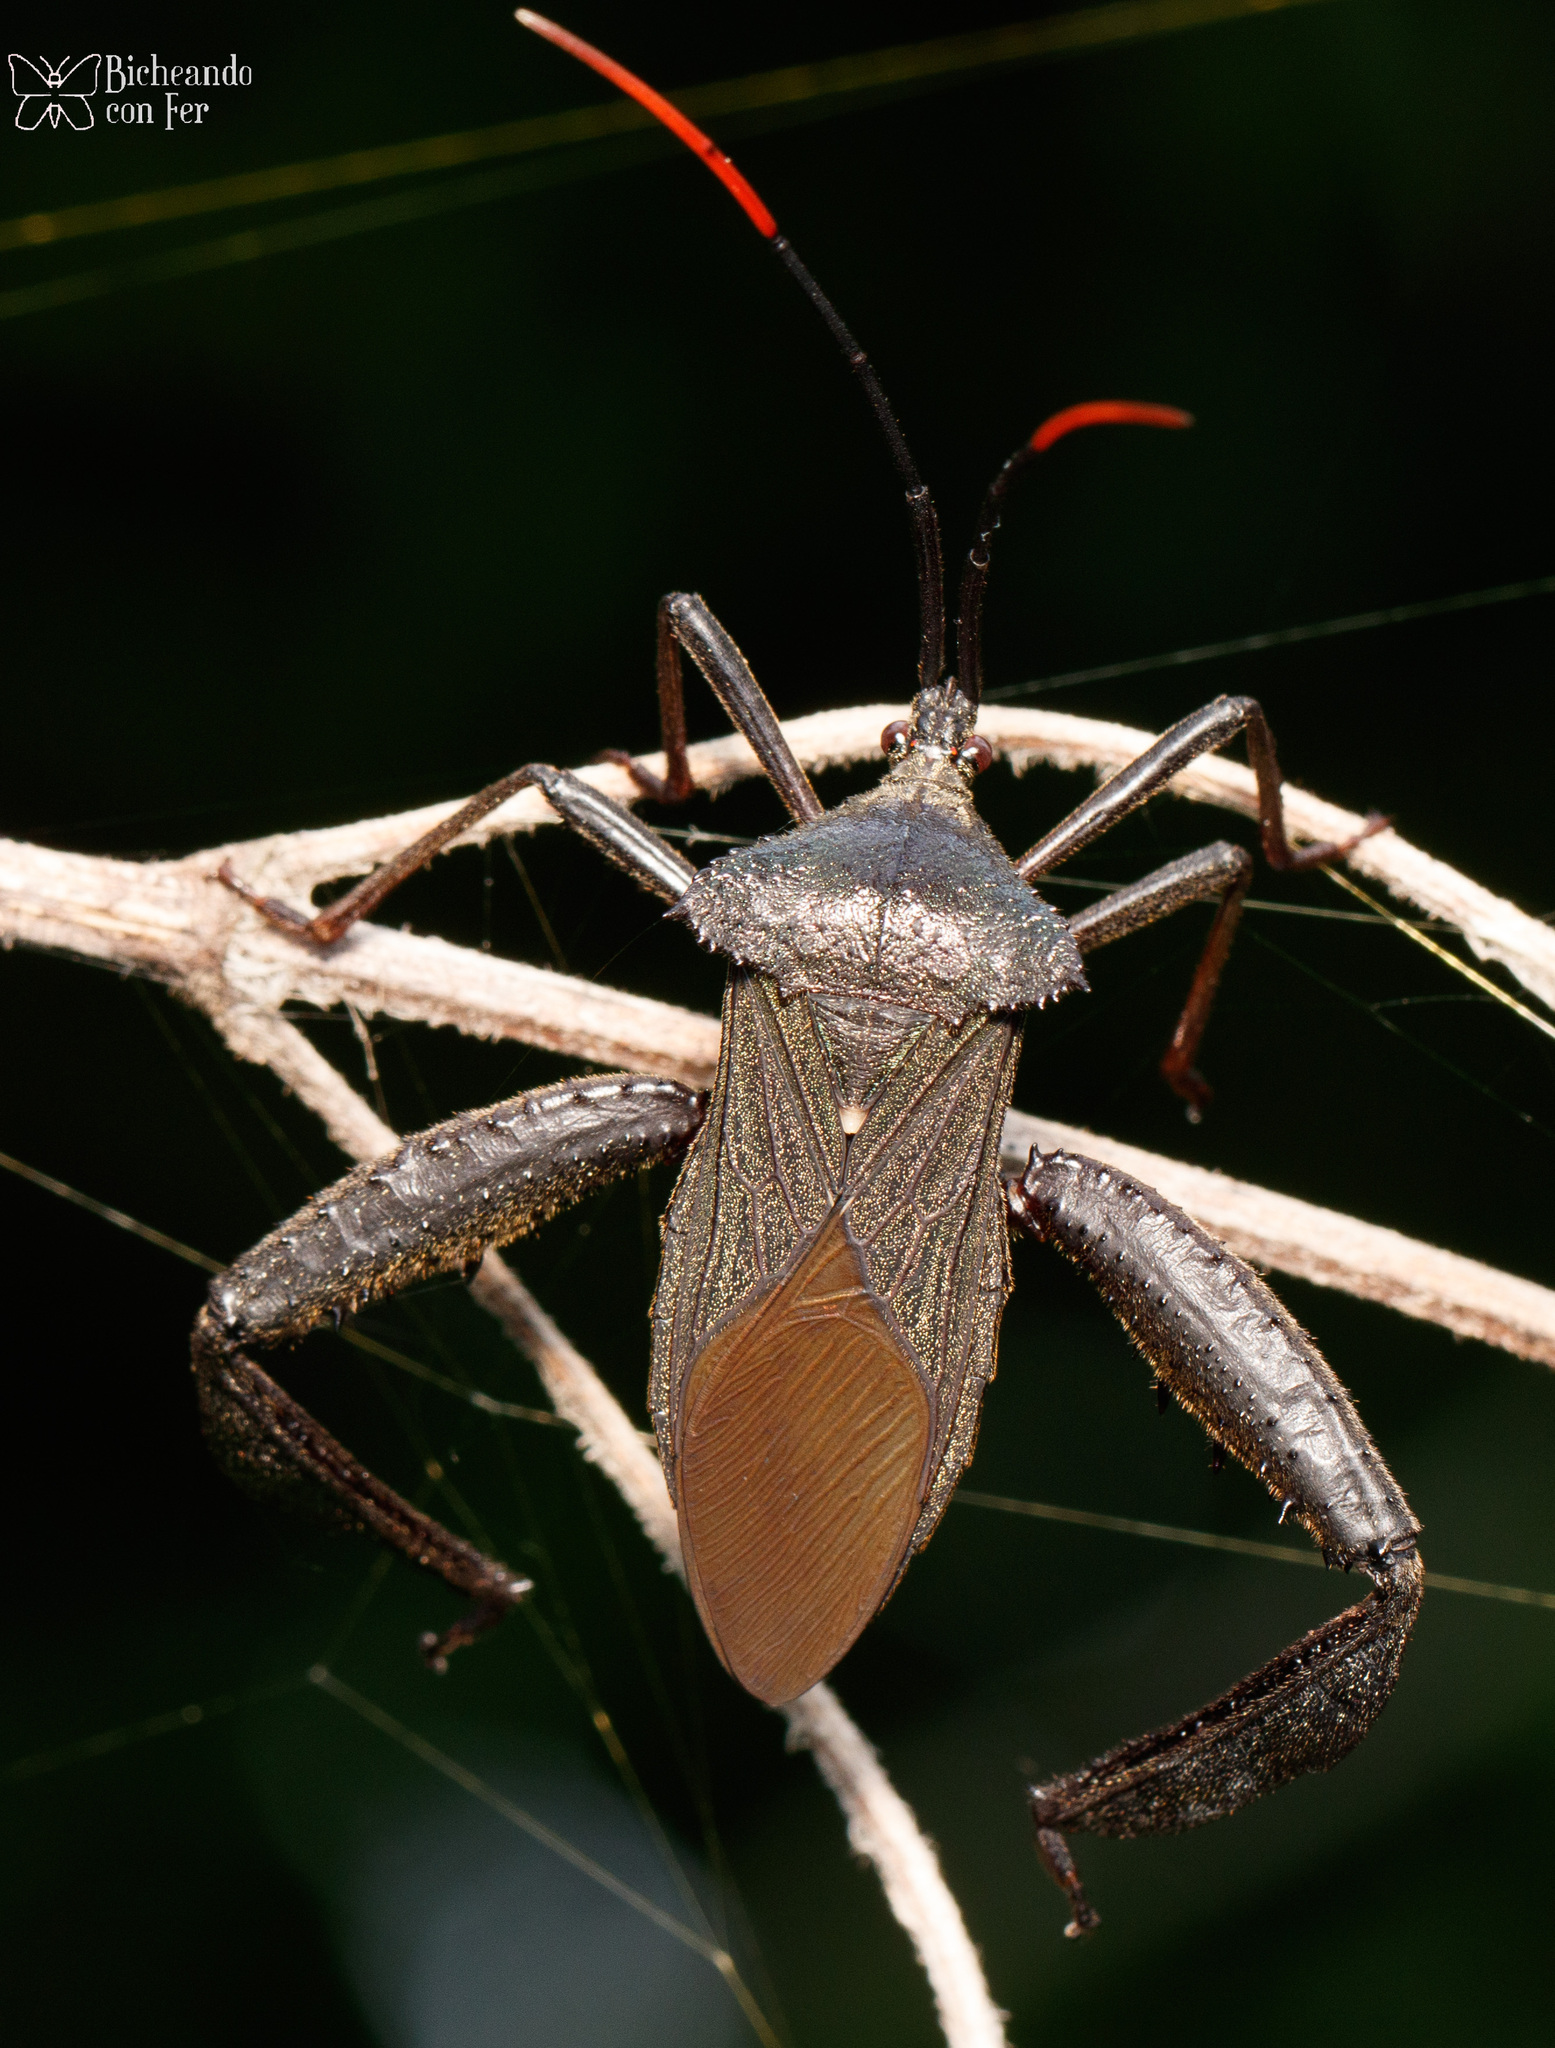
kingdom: Animalia
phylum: Arthropoda
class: Insecta
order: Hemiptera
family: Coreidae
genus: Acanthocephala
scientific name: Acanthocephala heissi
